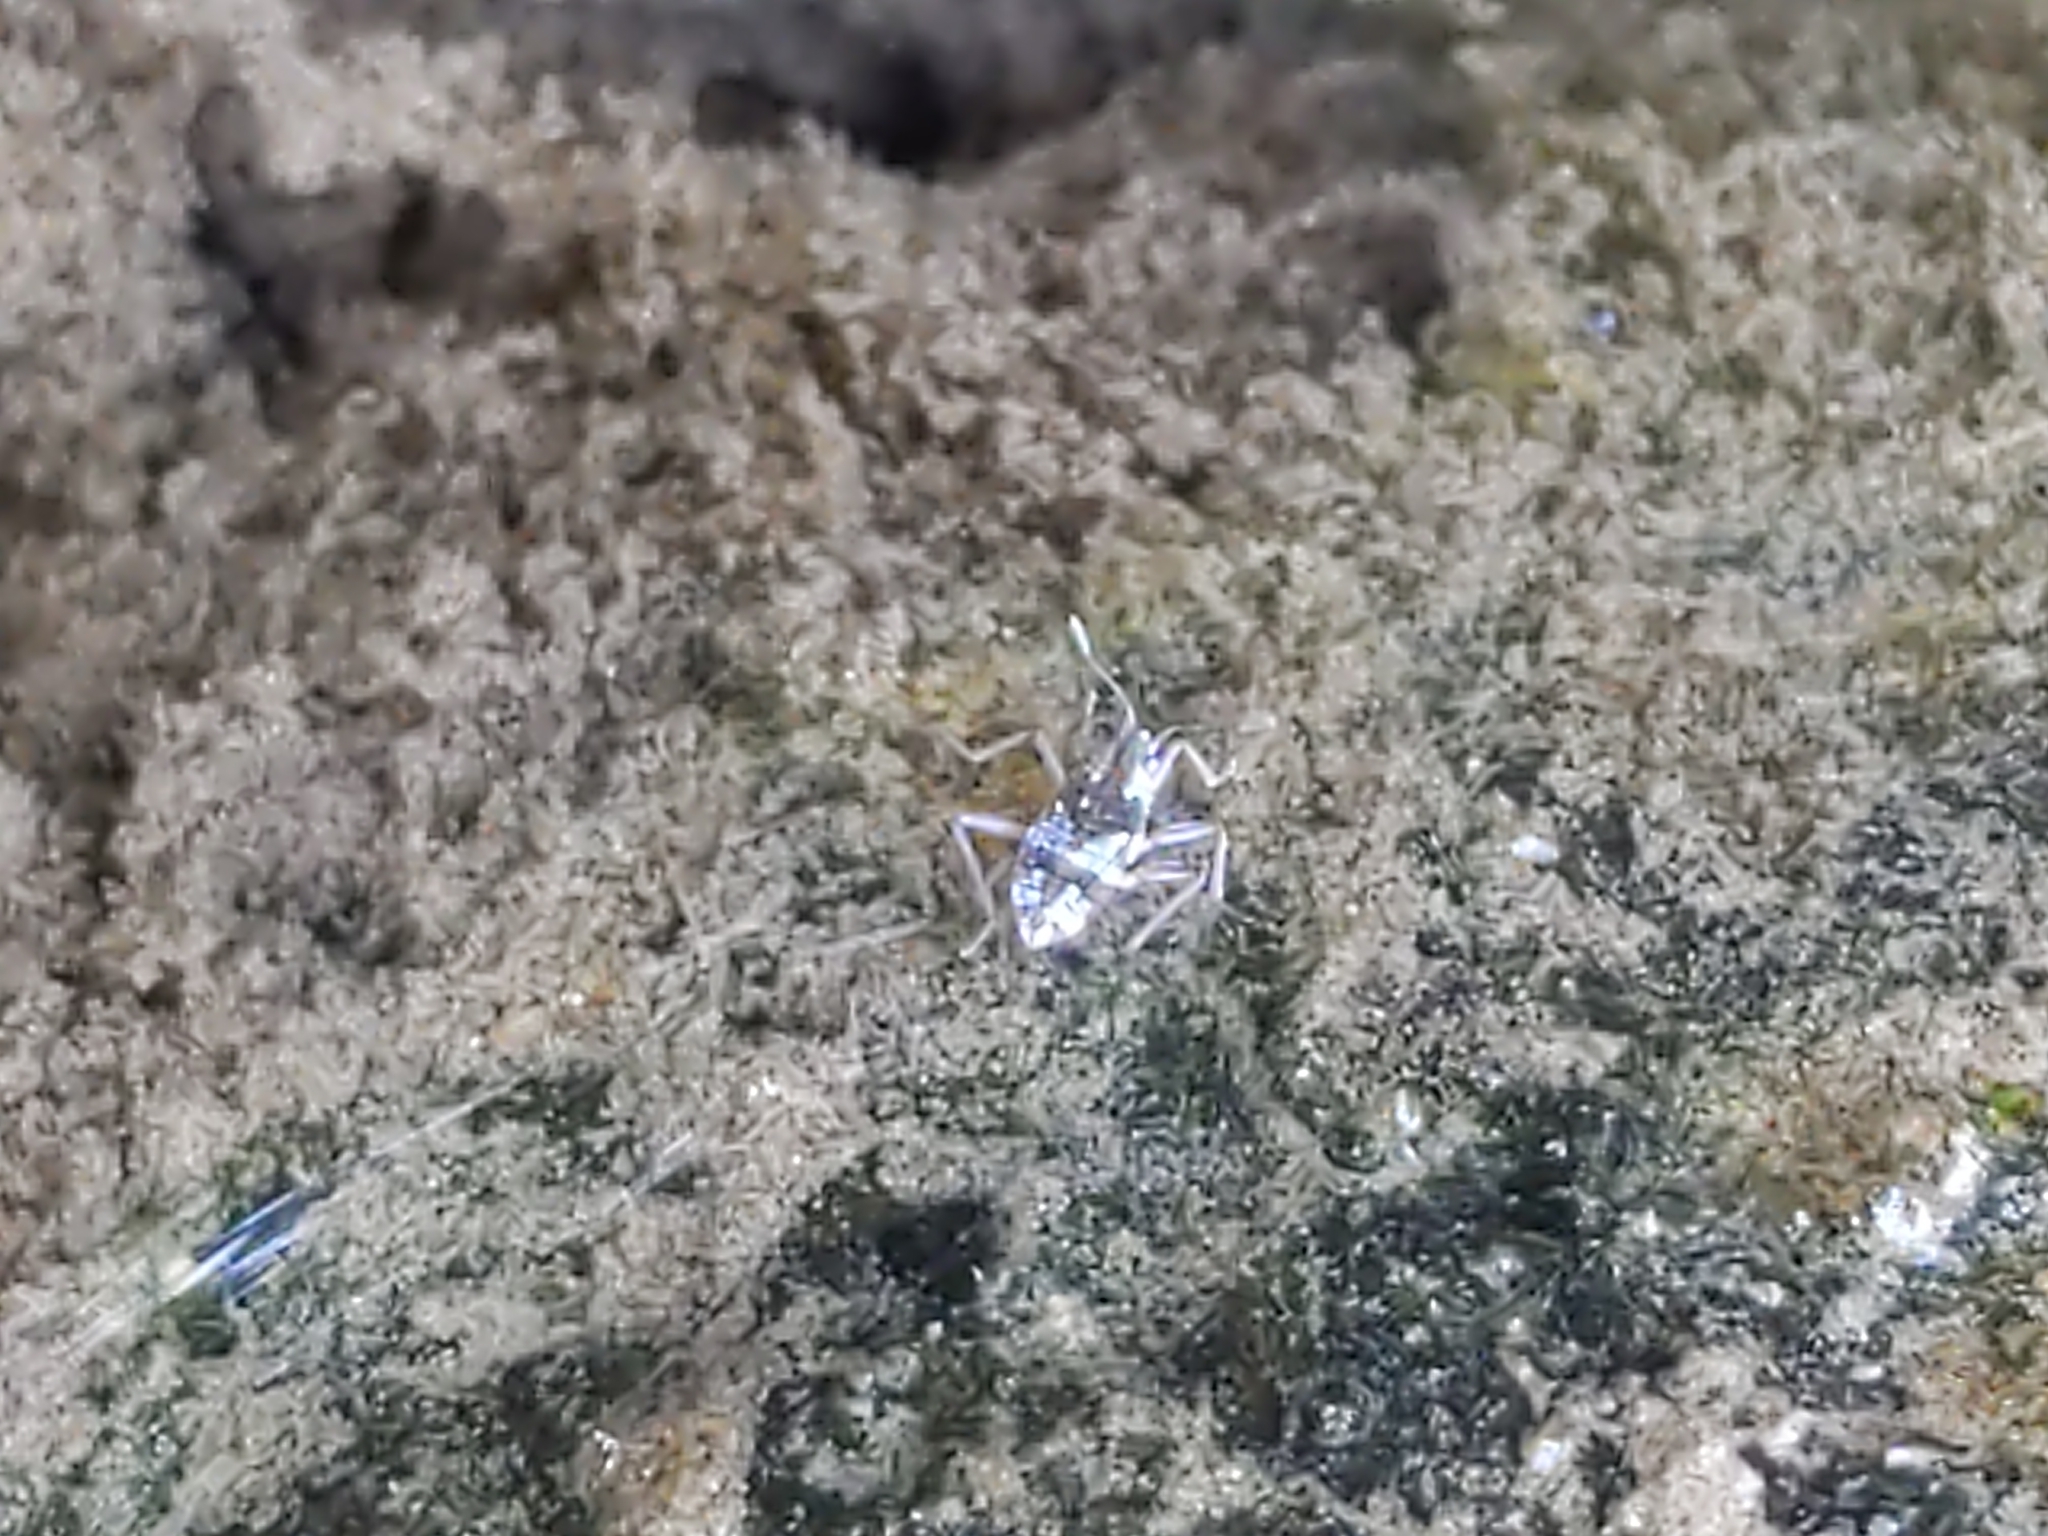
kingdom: Animalia
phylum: Arthropoda
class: Insecta
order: Hemiptera
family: Veliidae
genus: Microvelia
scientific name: Microvelia americana
